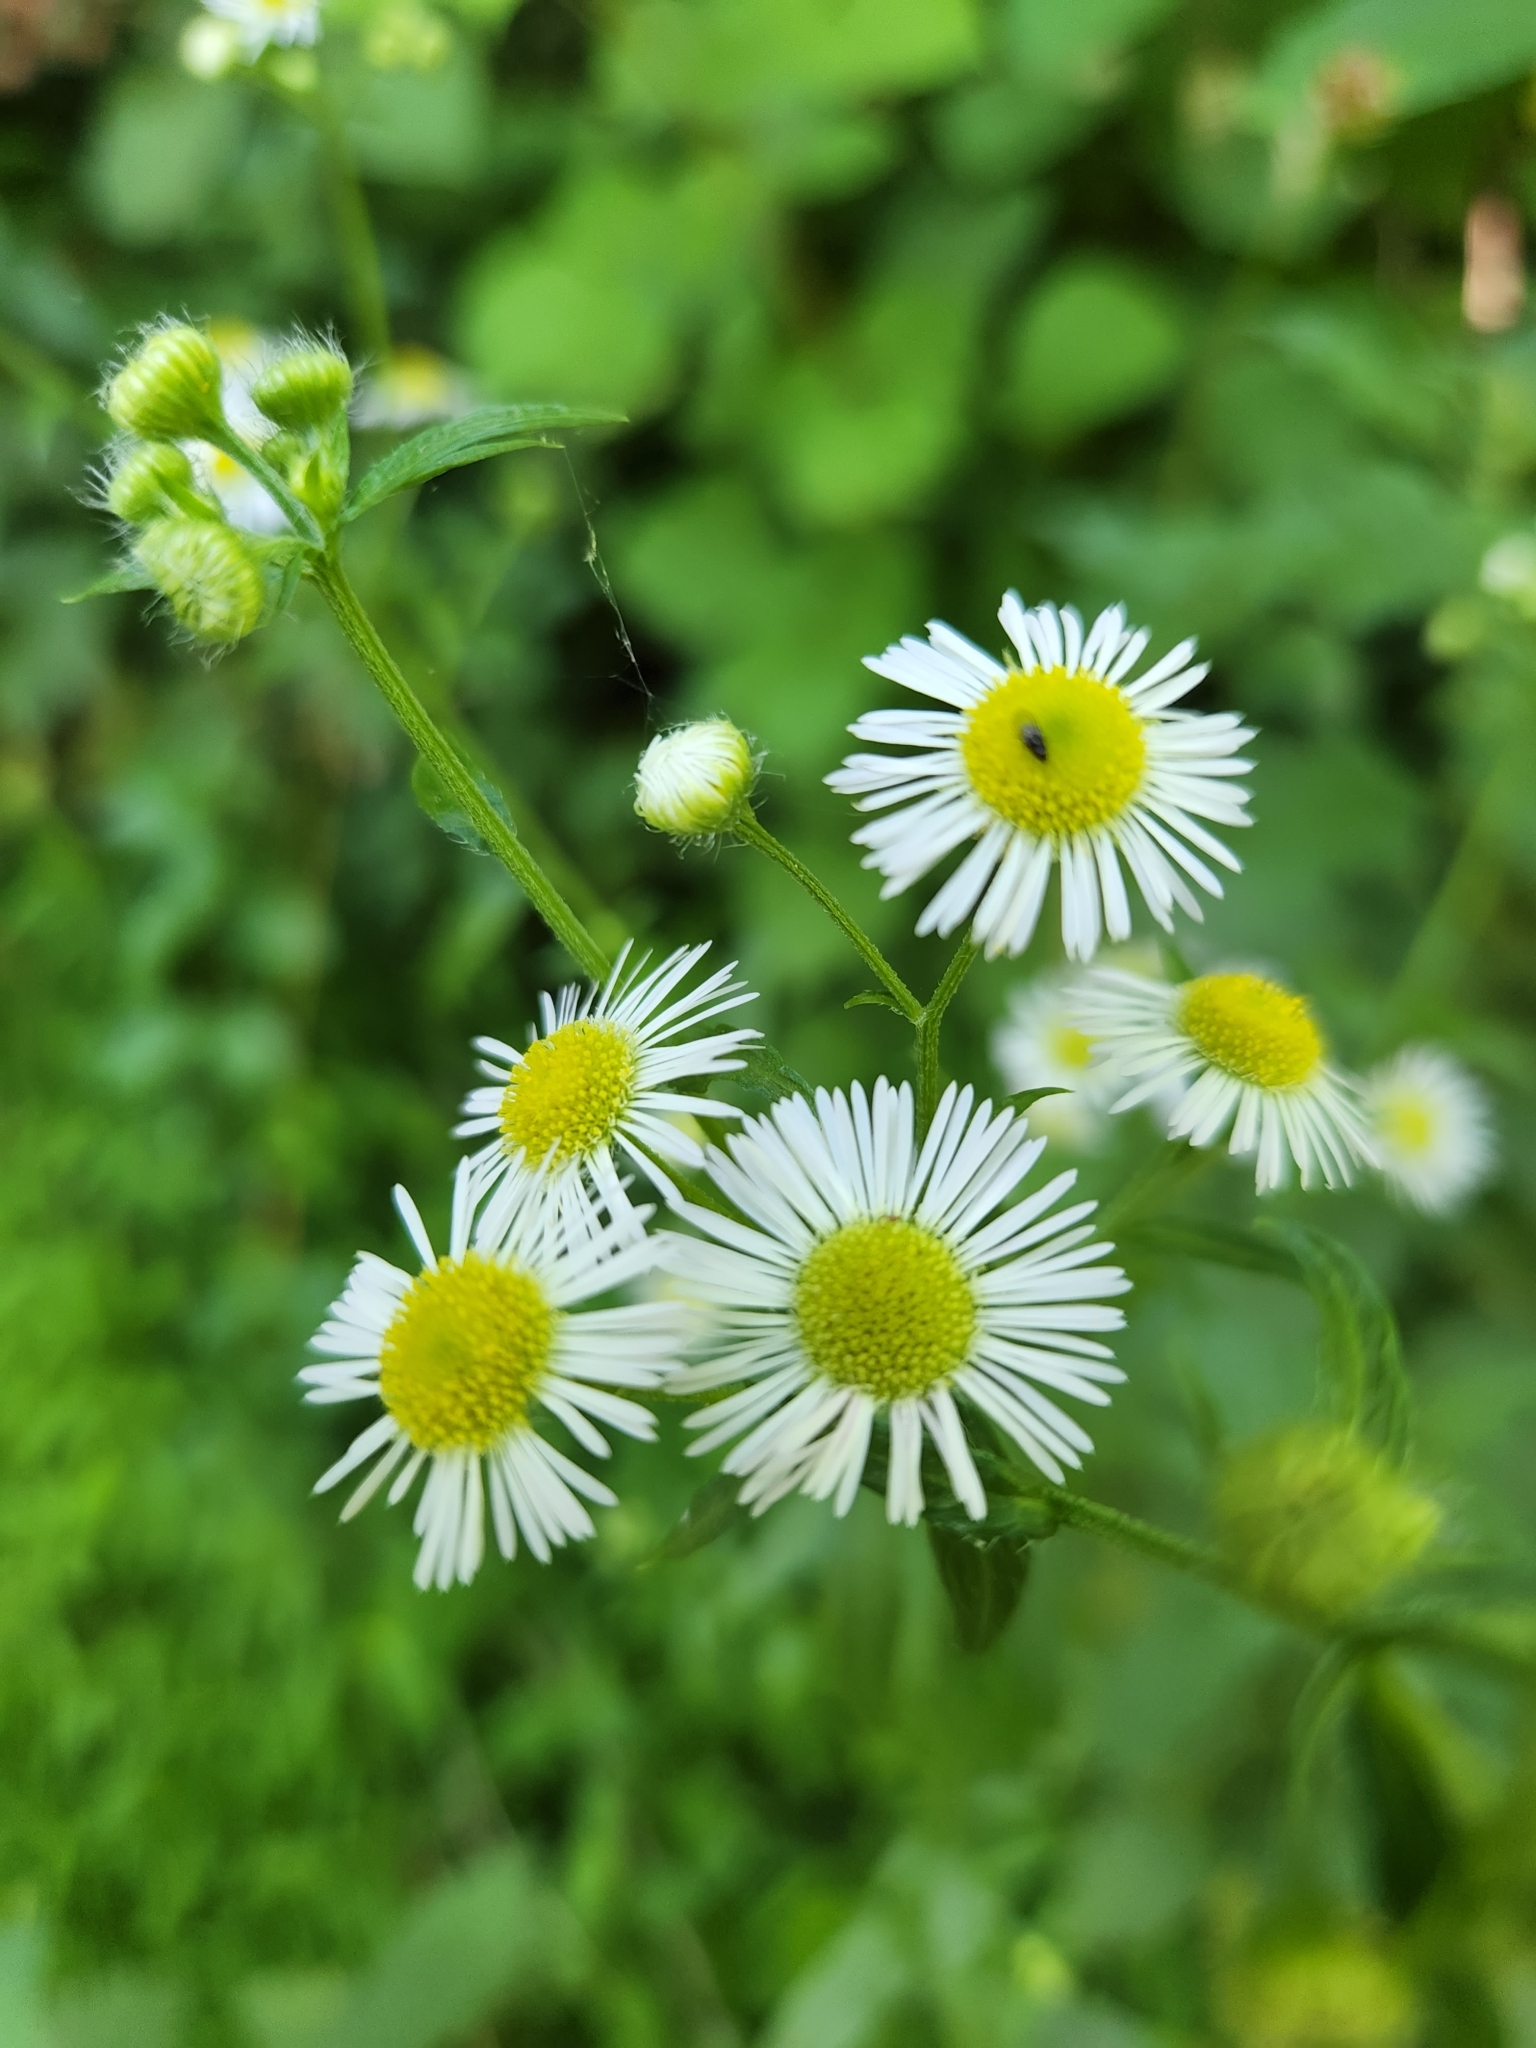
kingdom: Plantae
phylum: Tracheophyta
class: Magnoliopsida
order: Asterales
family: Asteraceae
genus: Erigeron
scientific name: Erigeron annuus
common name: Tall fleabane
